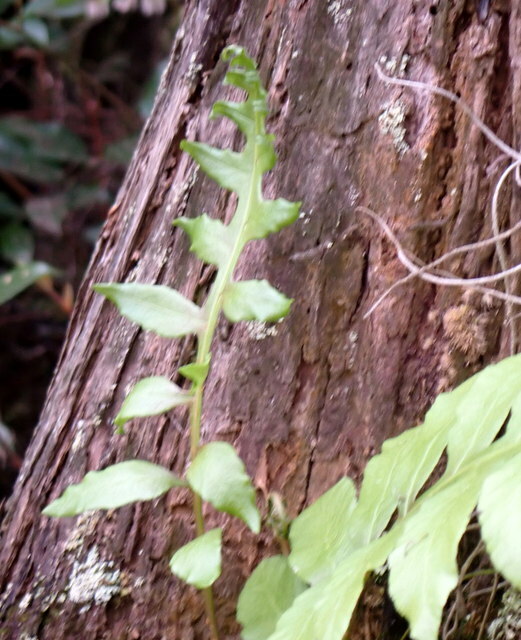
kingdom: Plantae
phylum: Tracheophyta
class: Polypodiopsida
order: Polypodiales
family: Blechnaceae
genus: Lorinseria
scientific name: Lorinseria areolata
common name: Dwarf chain fern
